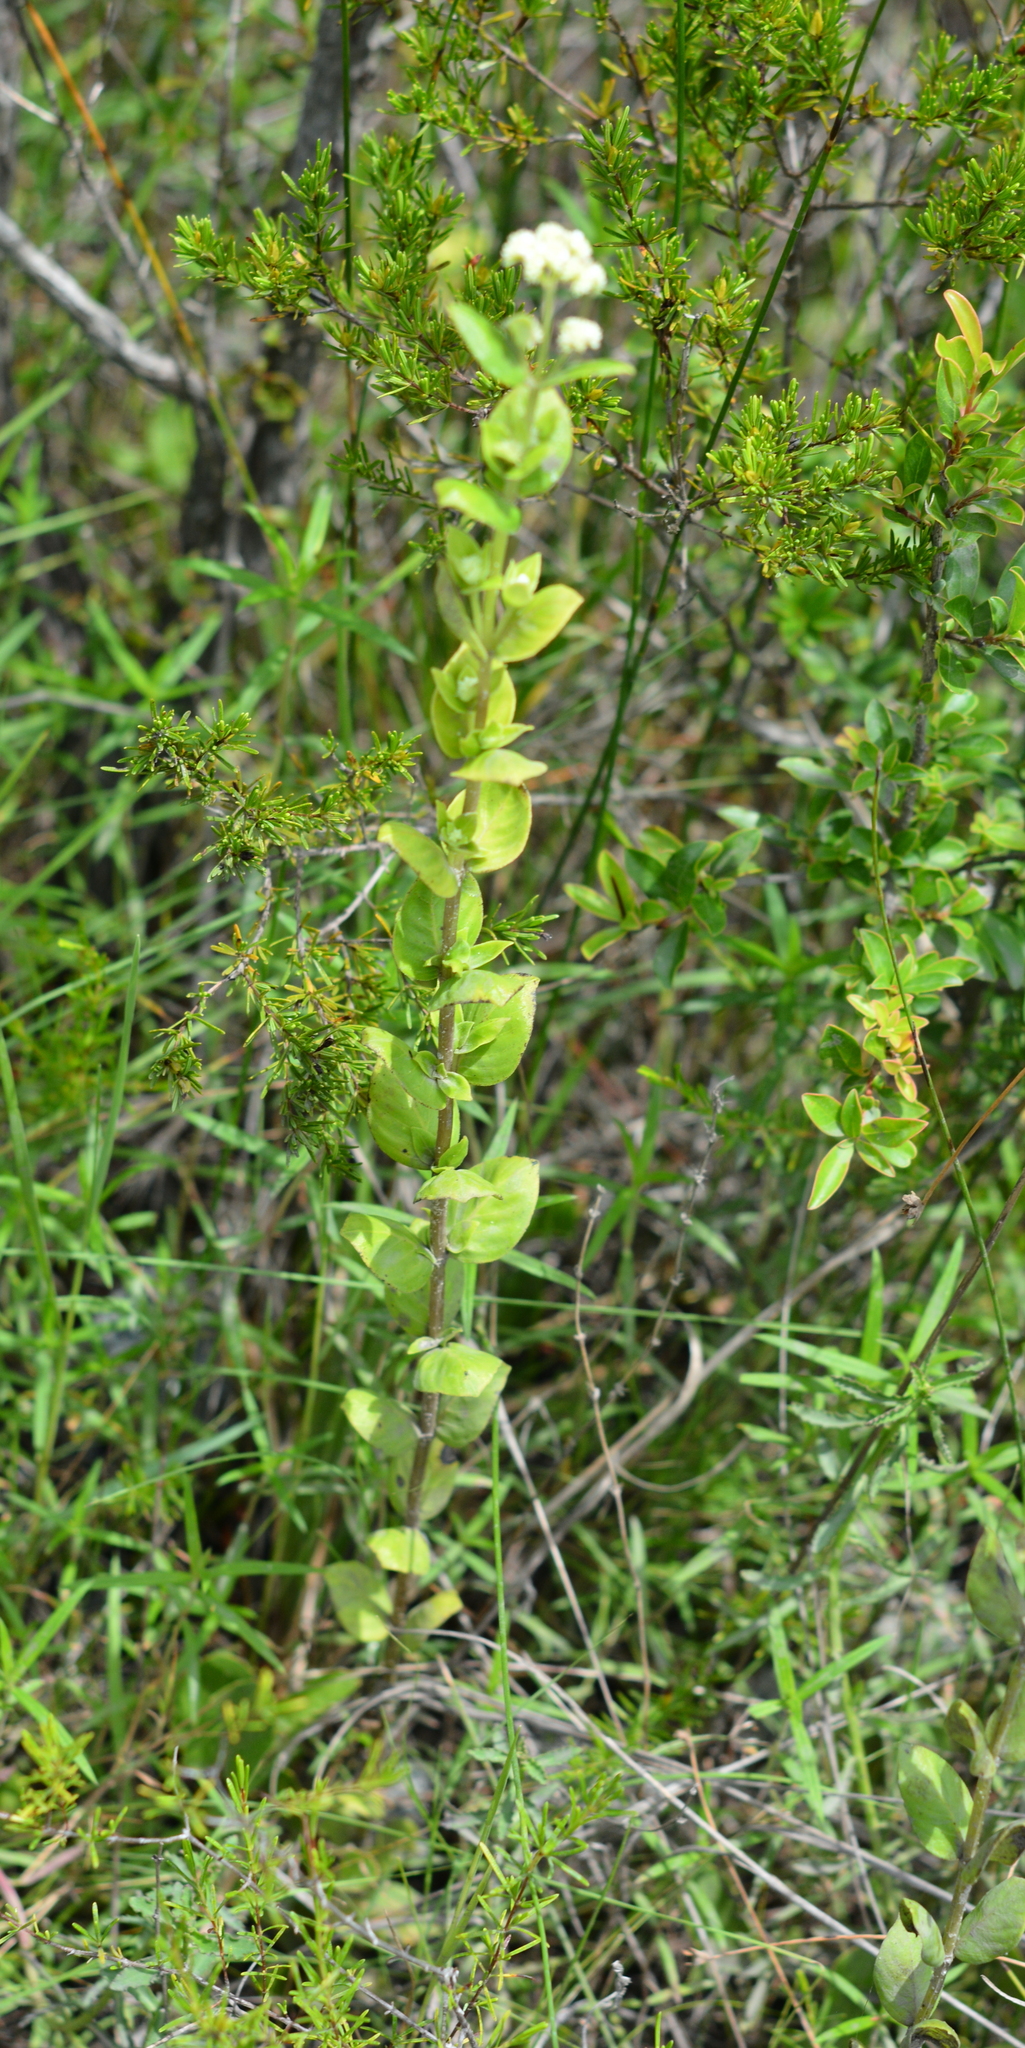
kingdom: Plantae
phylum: Tracheophyta
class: Magnoliopsida
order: Gentianales
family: Loganiaceae
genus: Mitreola
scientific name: Mitreola sessilifolia
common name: Swamp hornpod
